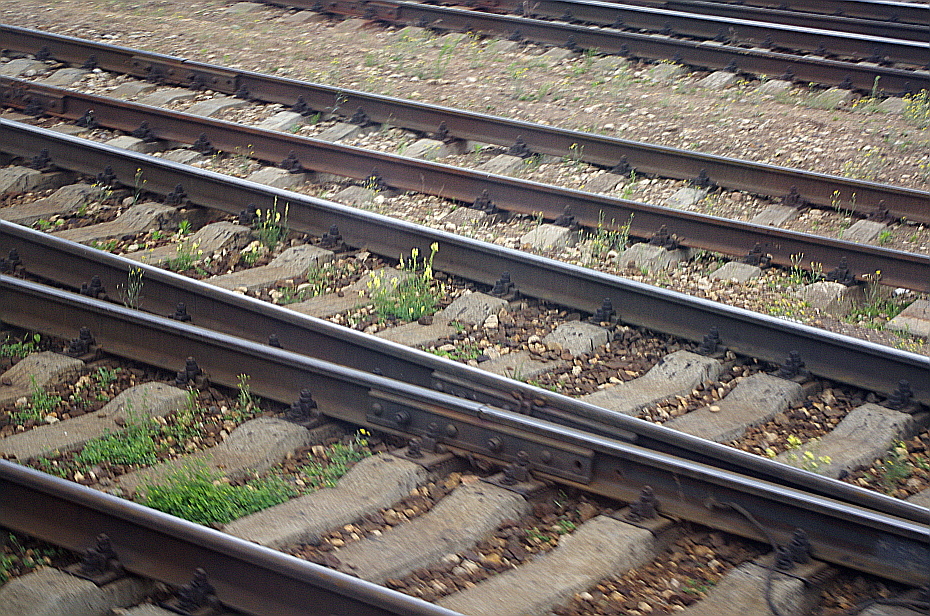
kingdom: Plantae
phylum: Tracheophyta
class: Magnoliopsida
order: Lamiales
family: Plantaginaceae
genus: Linaria
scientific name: Linaria vulgaris
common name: Butter and eggs
